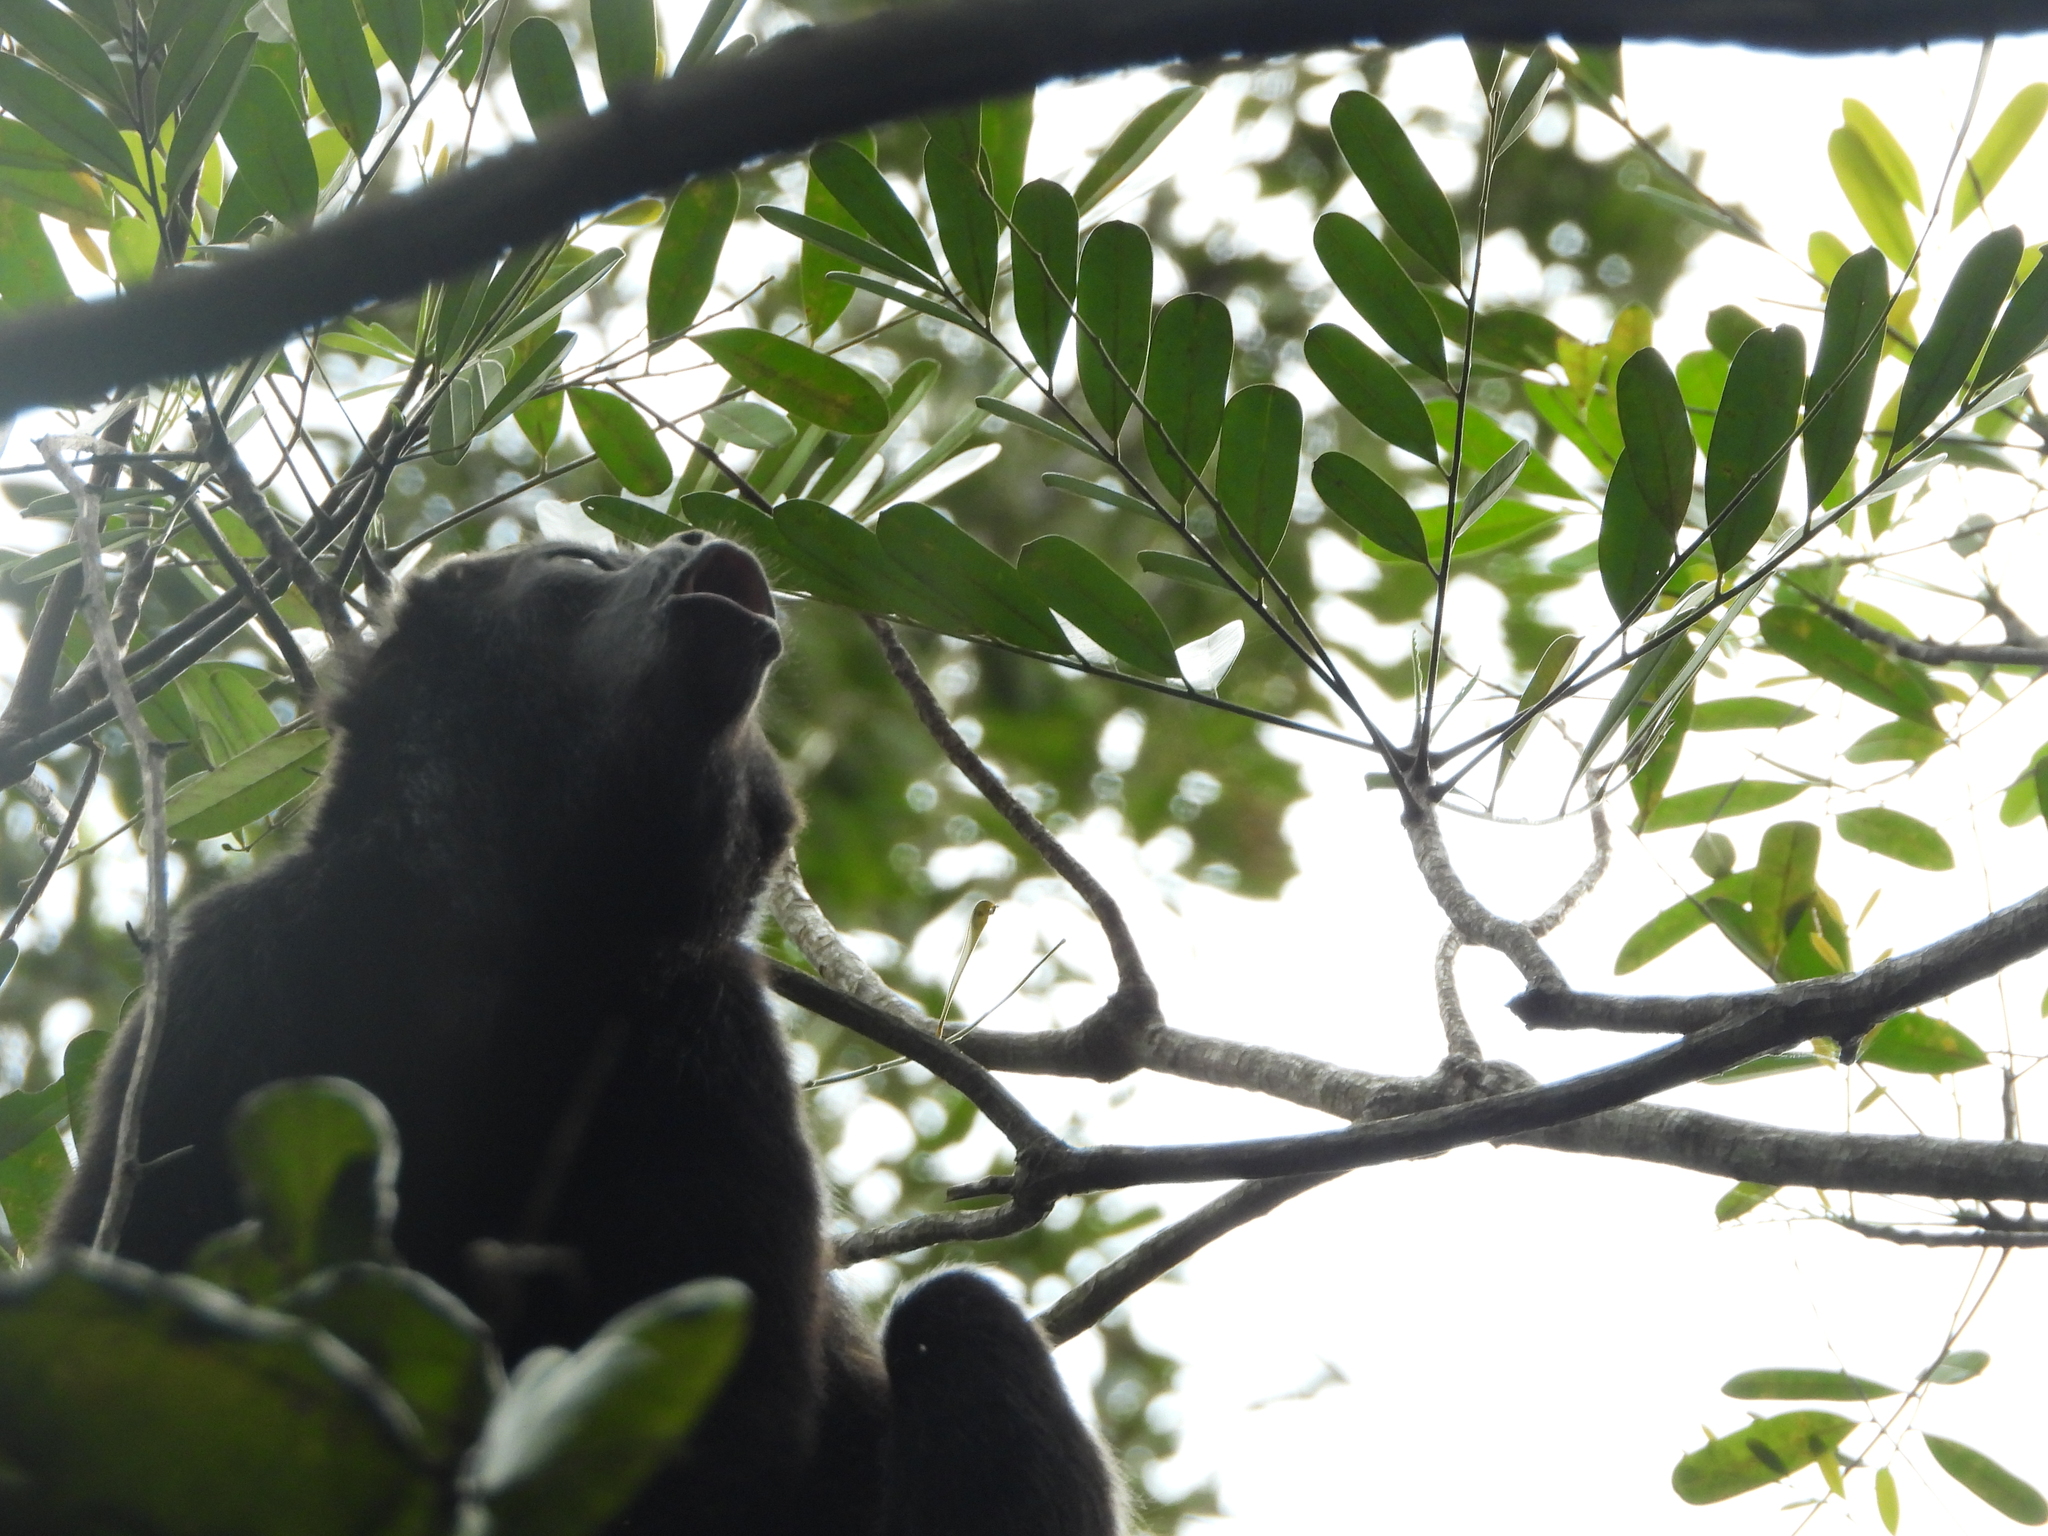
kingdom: Animalia
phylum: Chordata
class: Mammalia
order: Primates
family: Atelidae
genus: Alouatta
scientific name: Alouatta palliata
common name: Mantled howler
